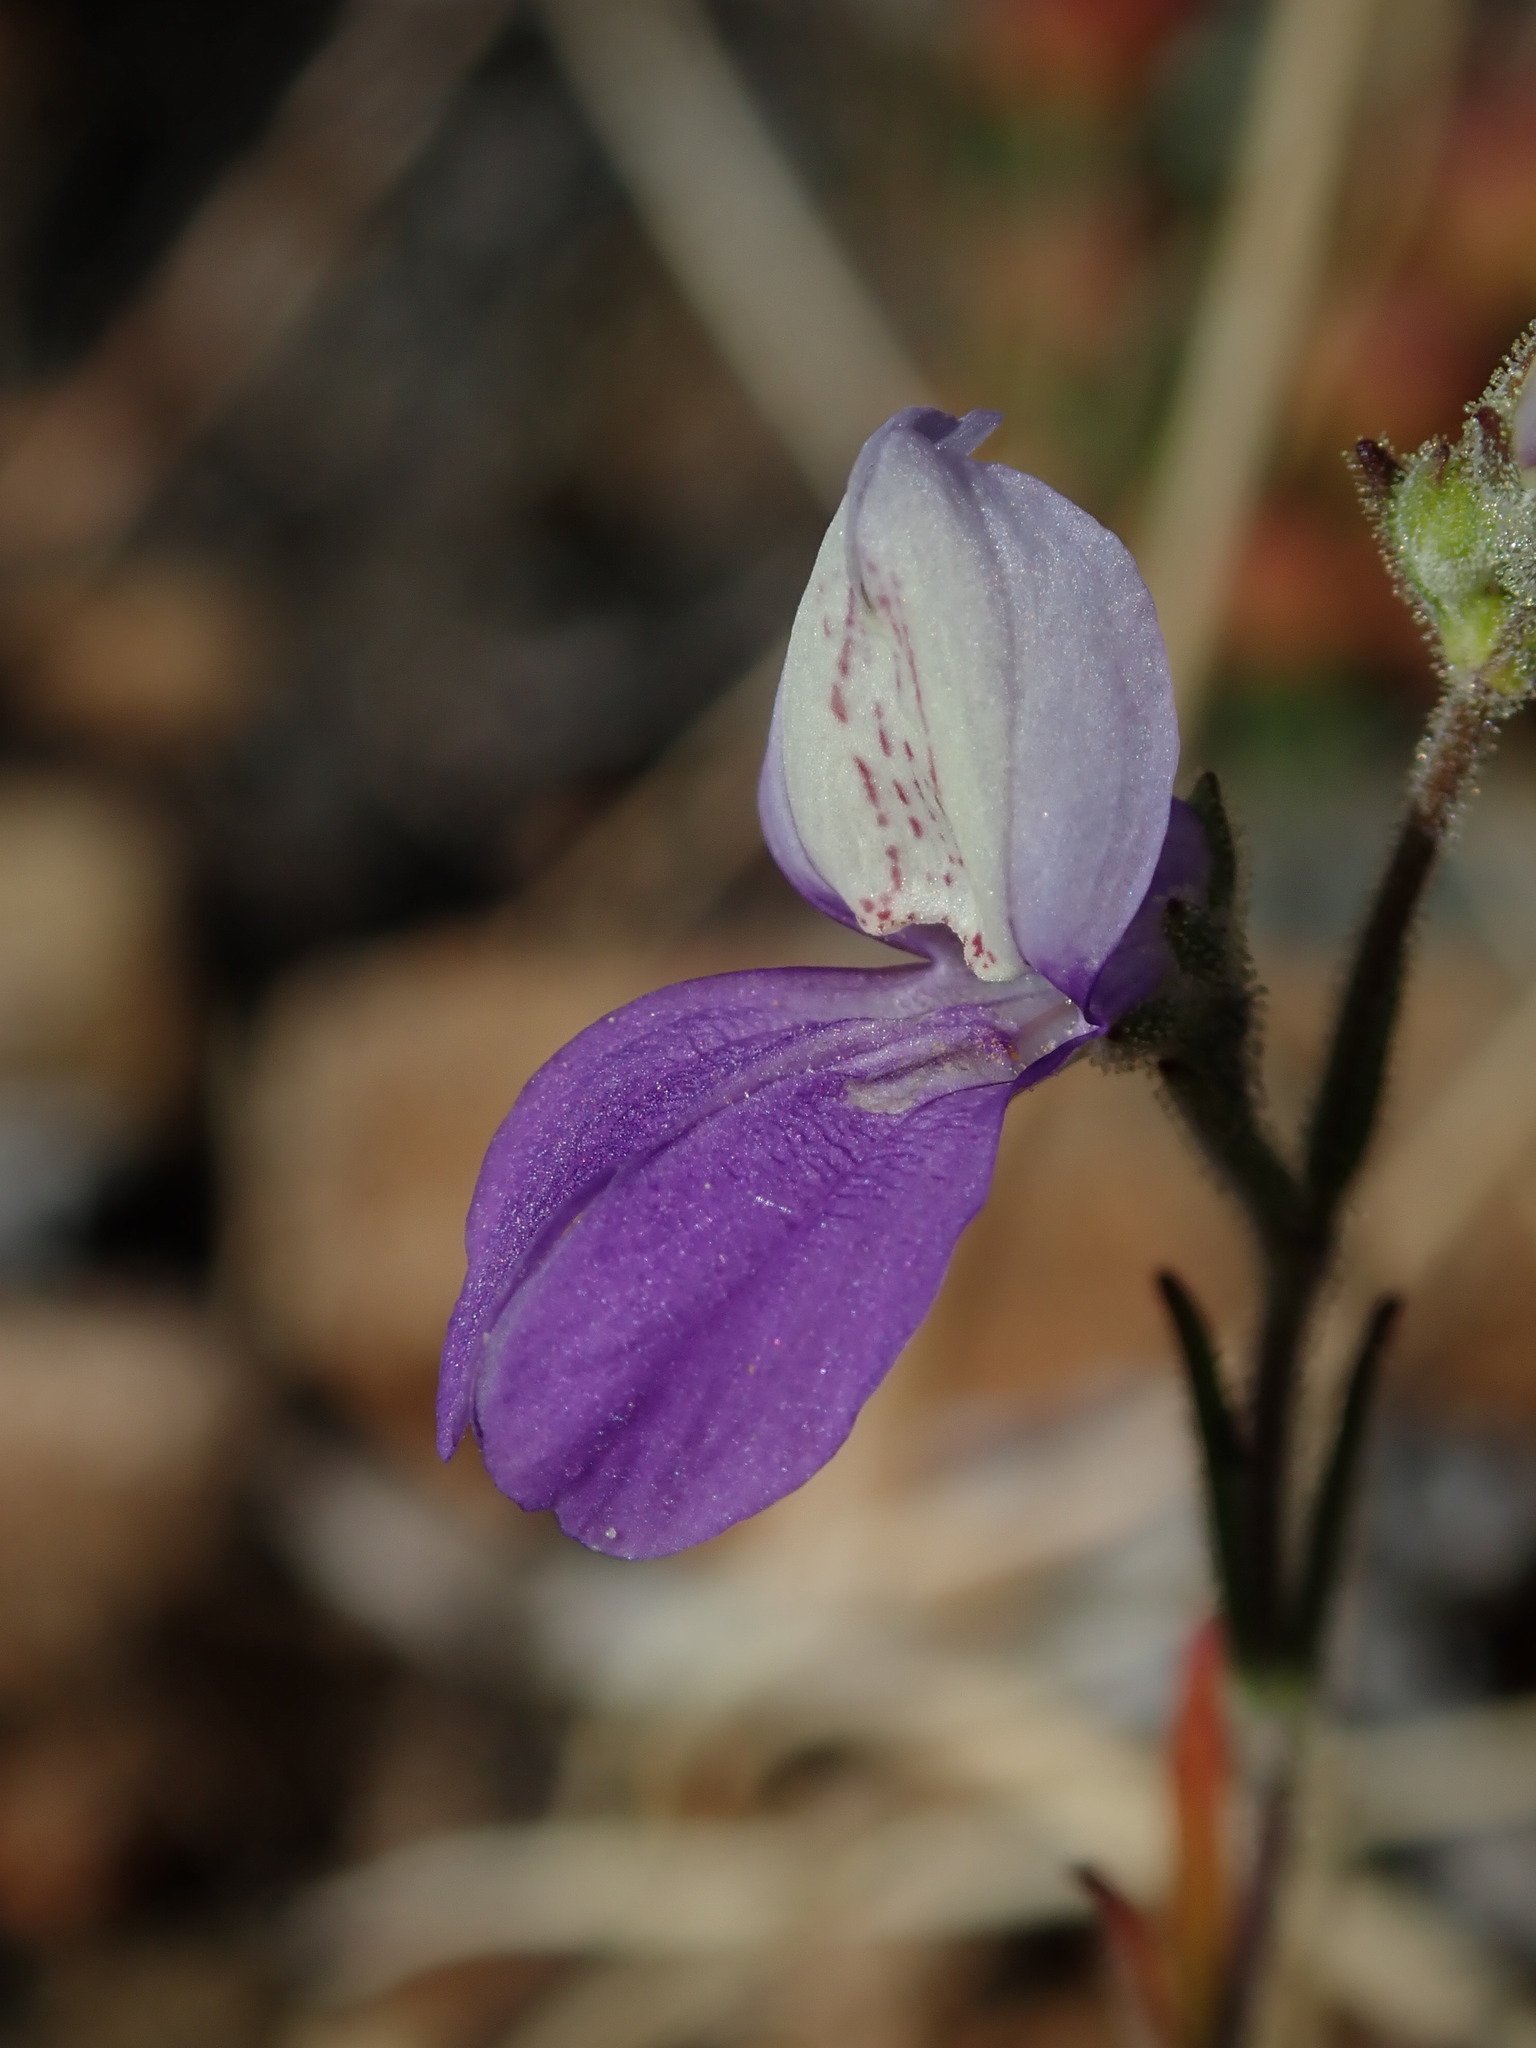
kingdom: Plantae
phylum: Tracheophyta
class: Magnoliopsida
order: Lamiales
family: Plantaginaceae
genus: Collinsia
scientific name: Collinsia linearis
